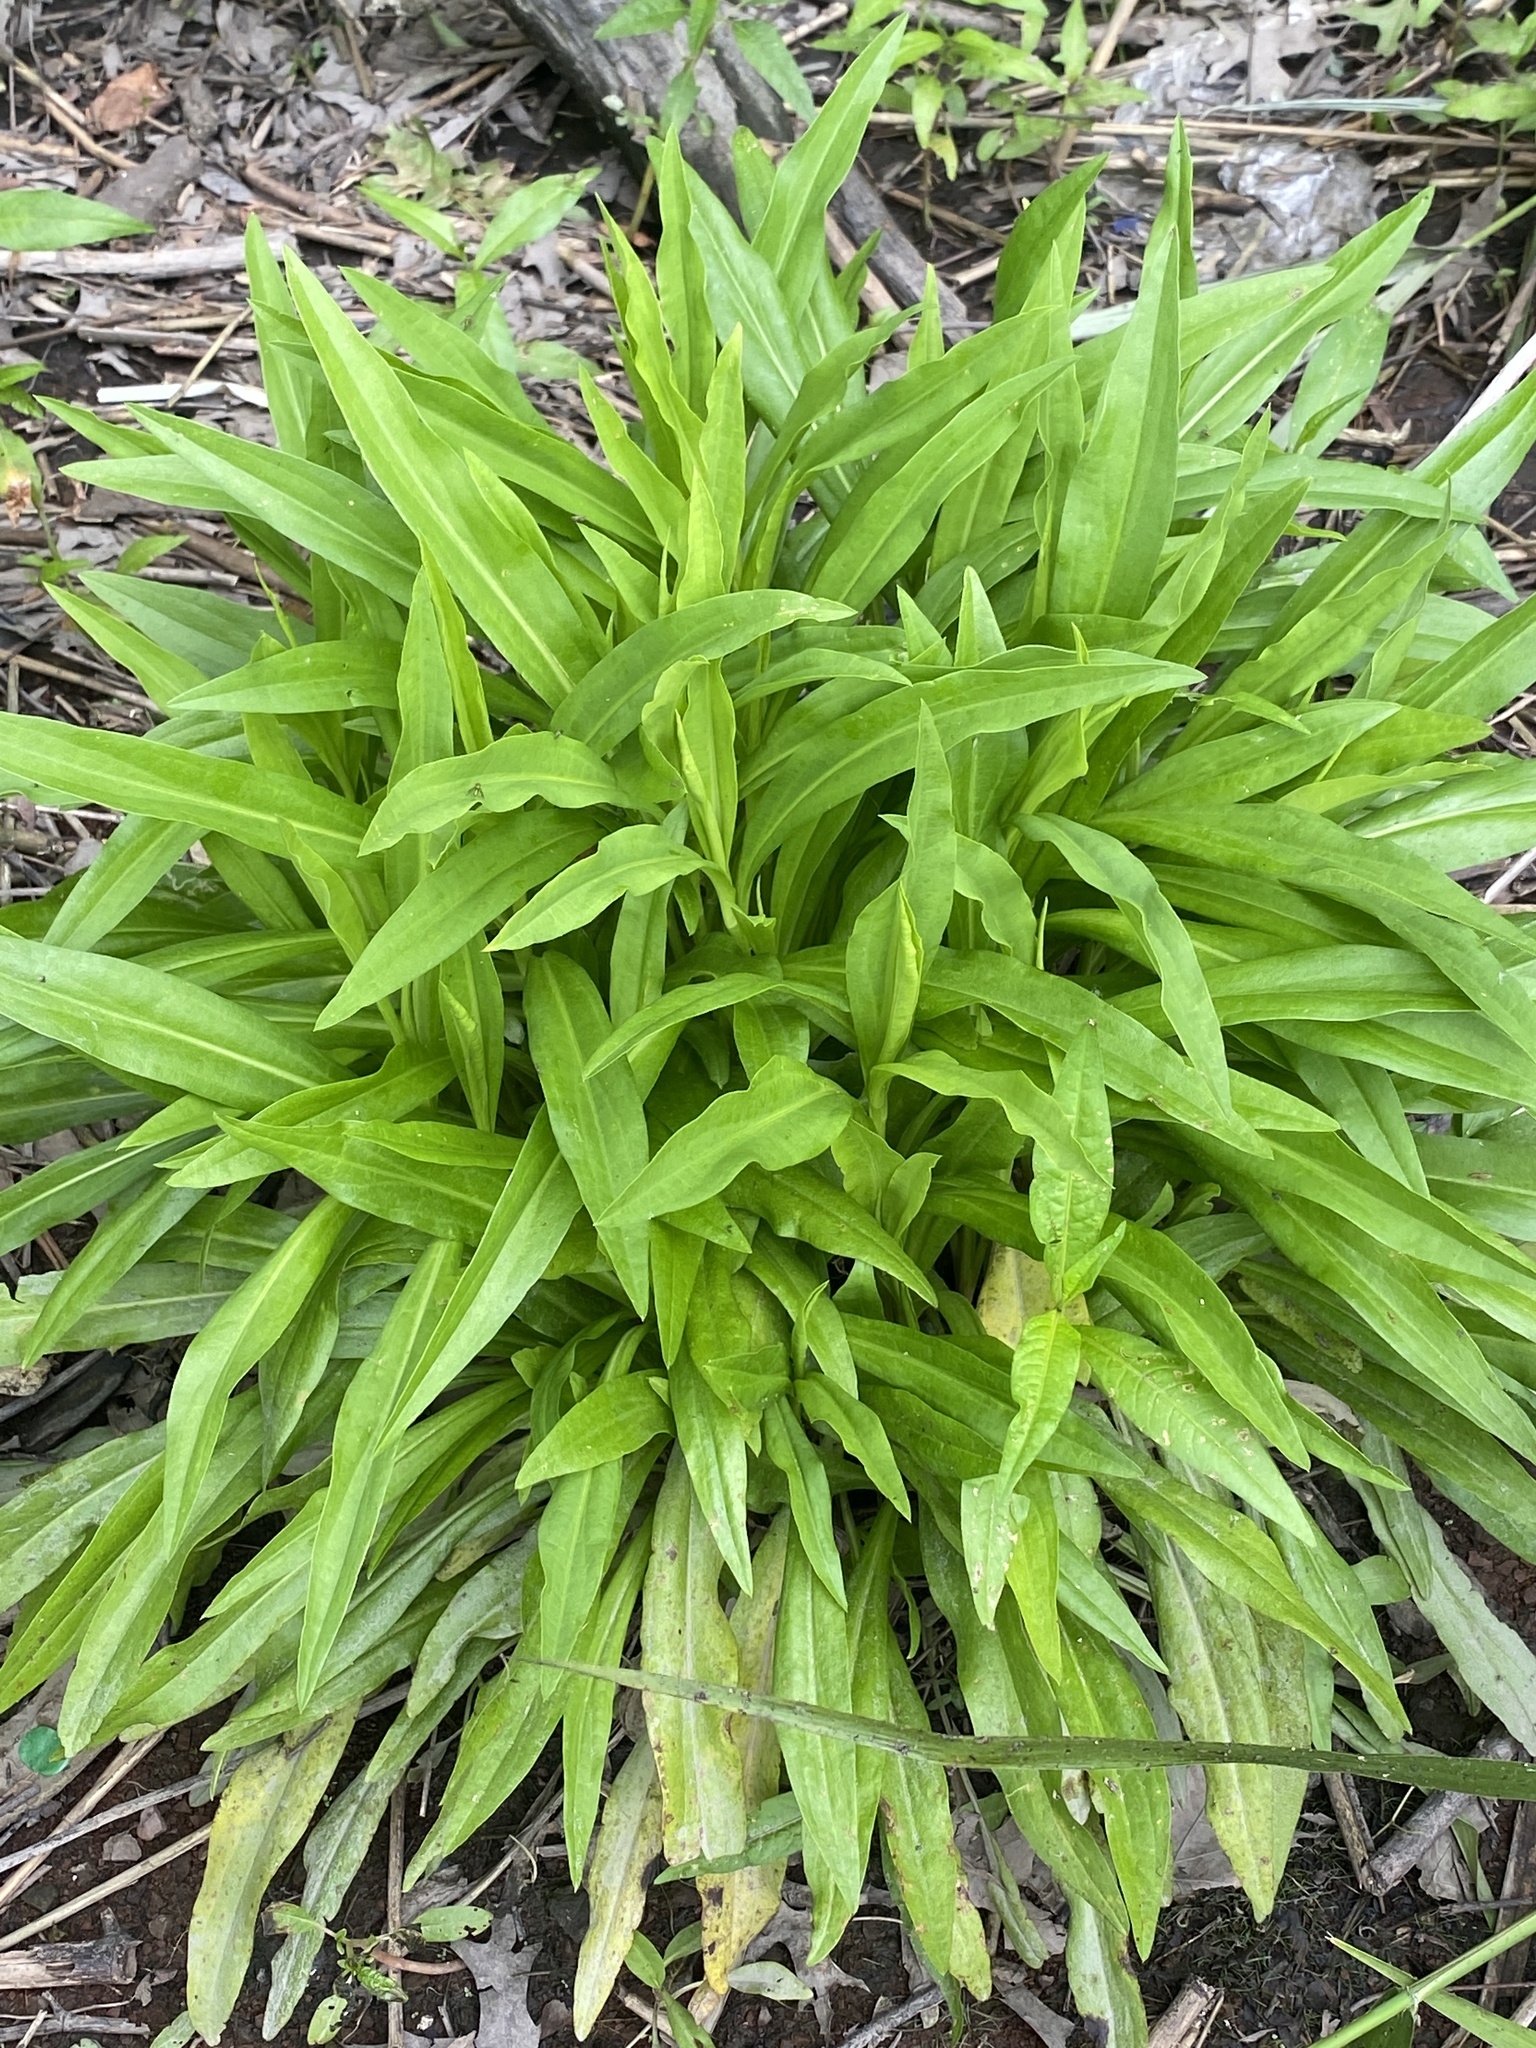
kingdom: Plantae
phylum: Tracheophyta
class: Magnoliopsida
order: Asterales
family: Asteraceae
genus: Solidago
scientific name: Solidago sempervirens
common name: Salt-marsh goldenrod
